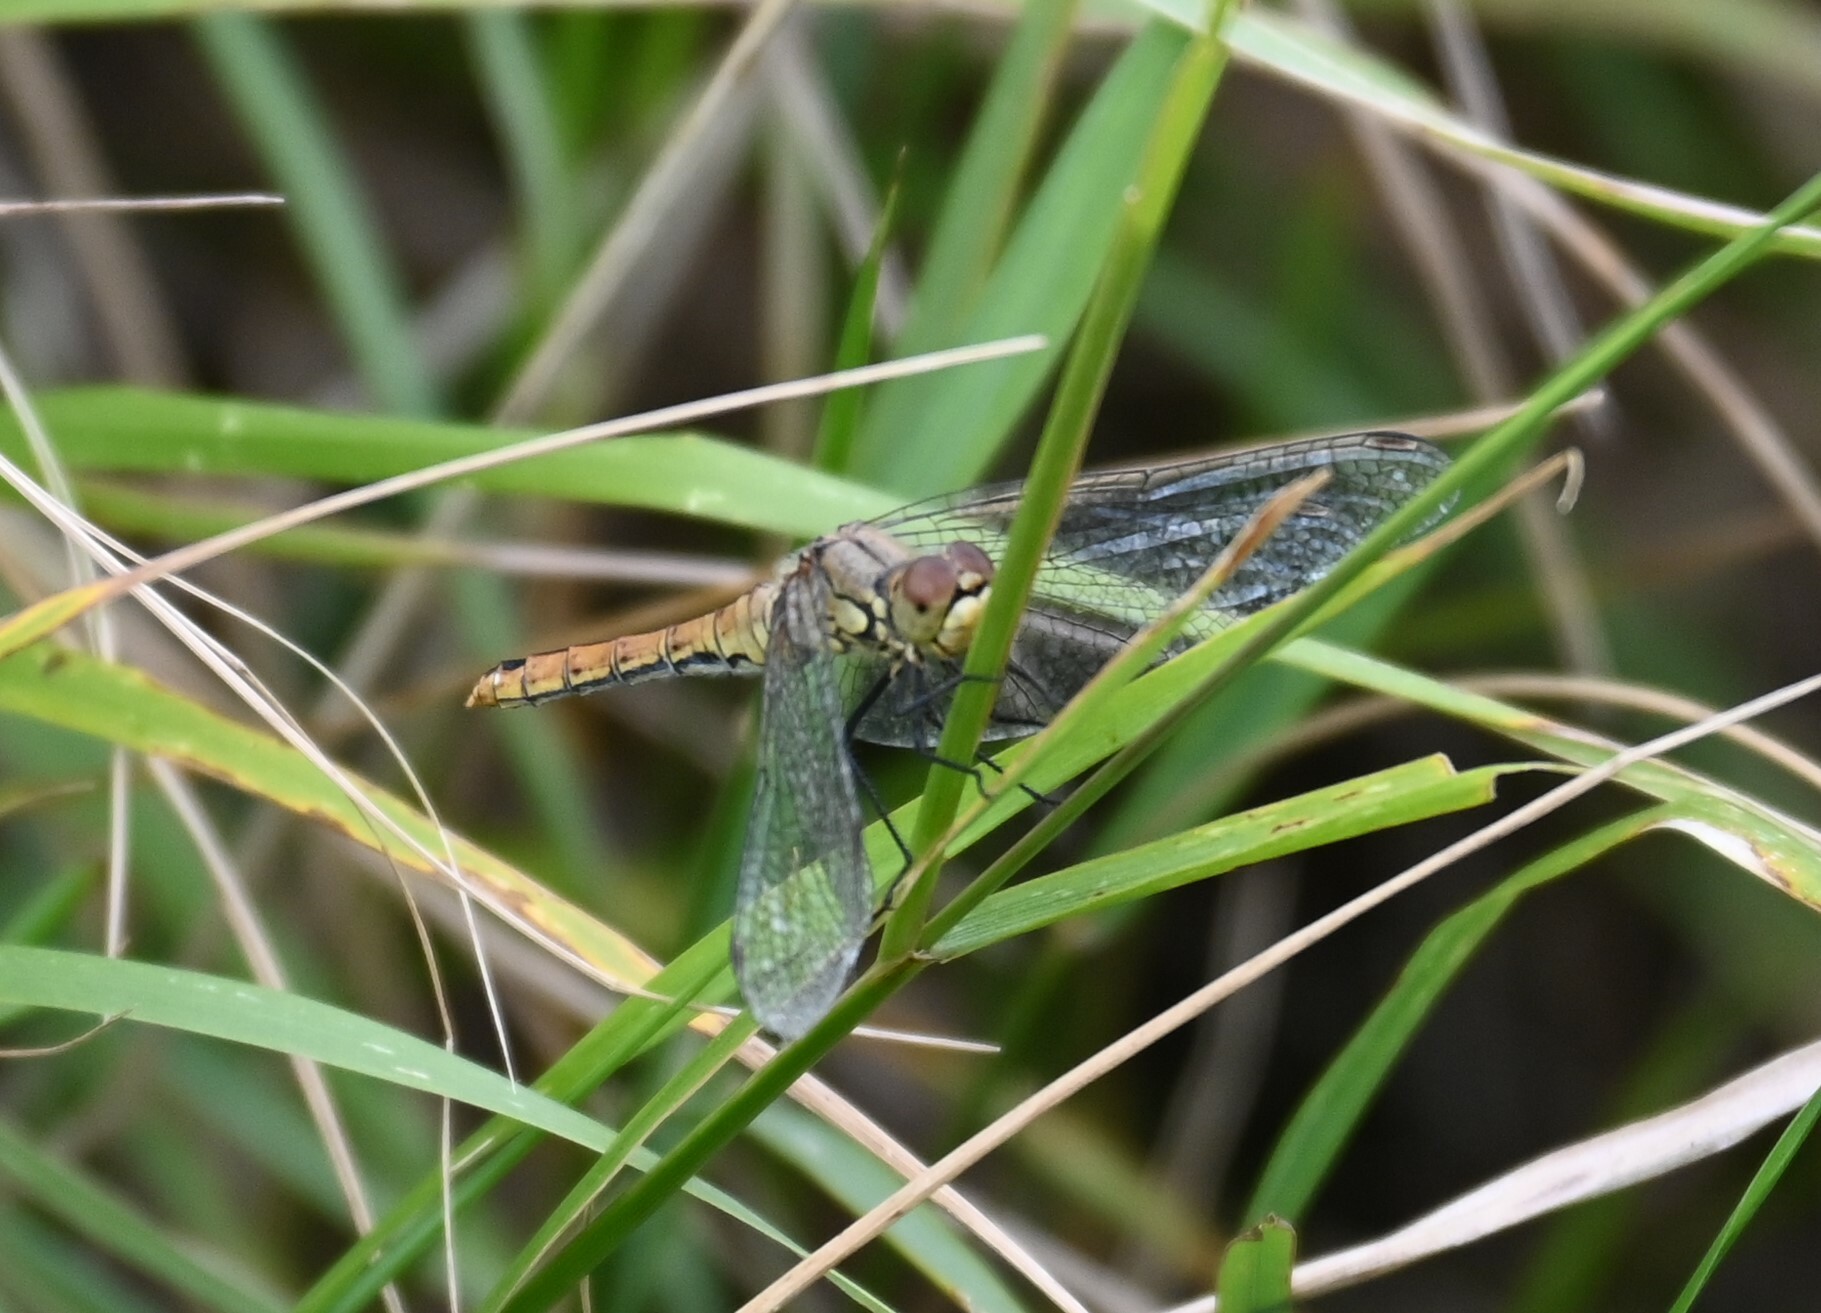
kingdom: Animalia
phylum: Arthropoda
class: Insecta
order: Odonata
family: Libellulidae
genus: Sympetrum
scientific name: Sympetrum sanguineum
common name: Ruddy darter
